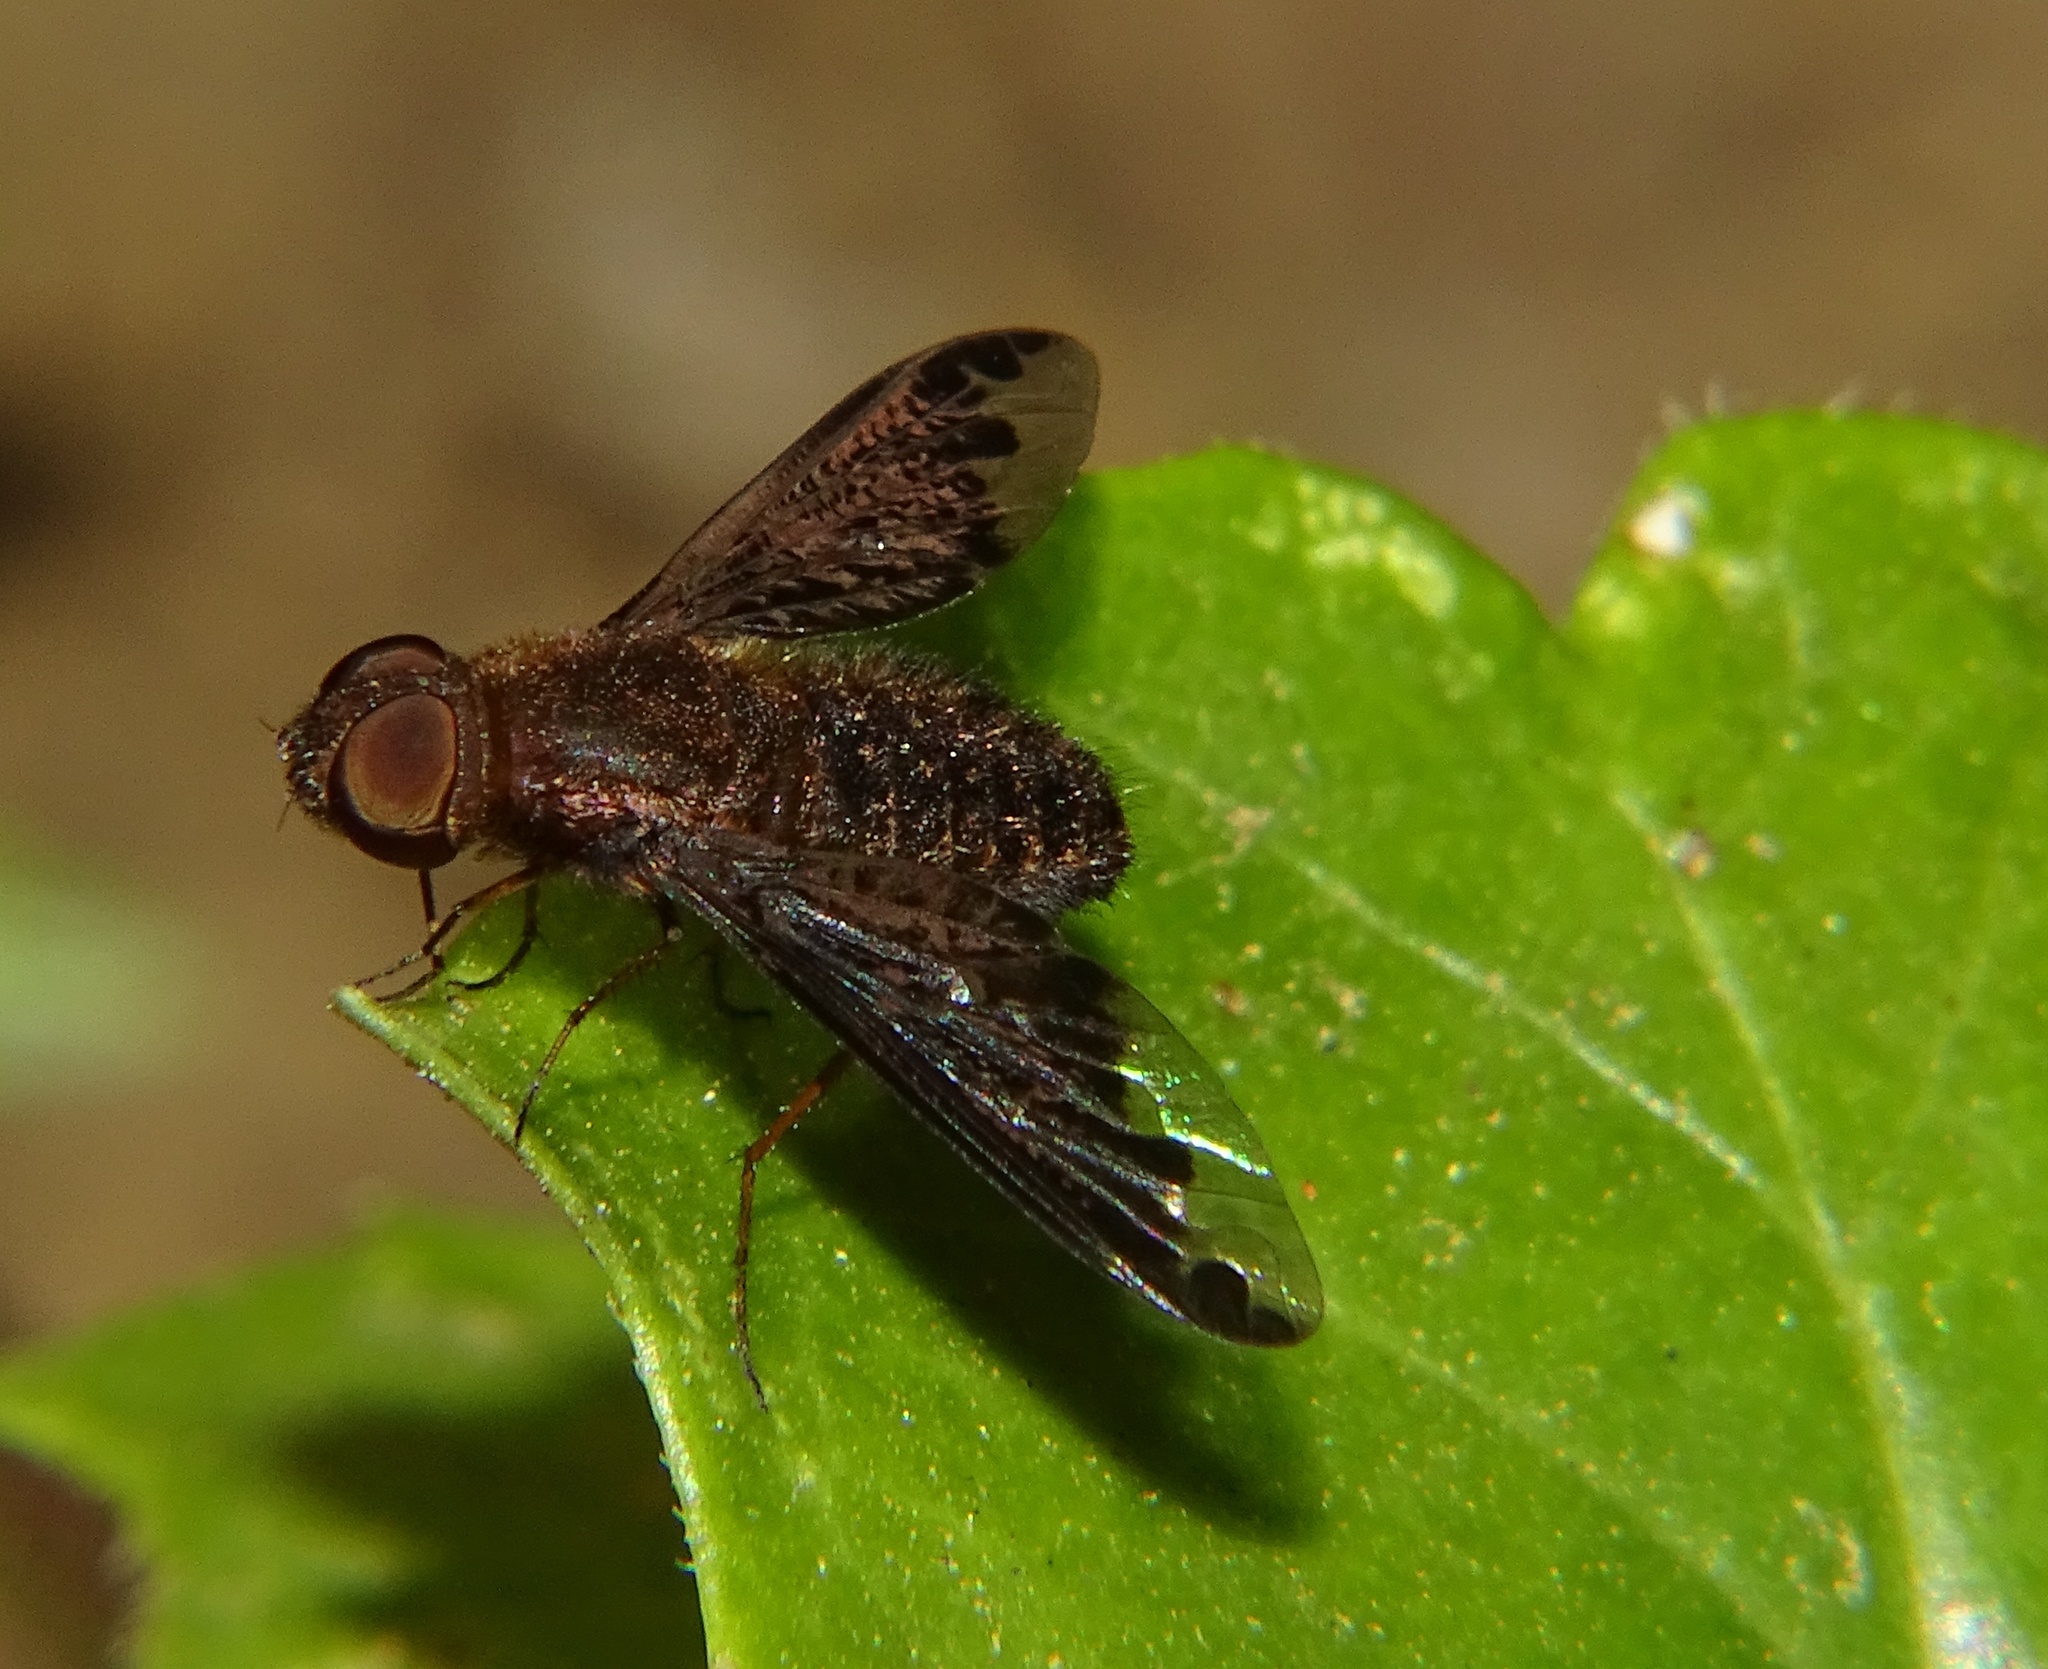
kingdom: Animalia
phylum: Arthropoda
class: Insecta
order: Diptera
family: Bombyliidae
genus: Hemipenthes
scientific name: Hemipenthes sinuosus
